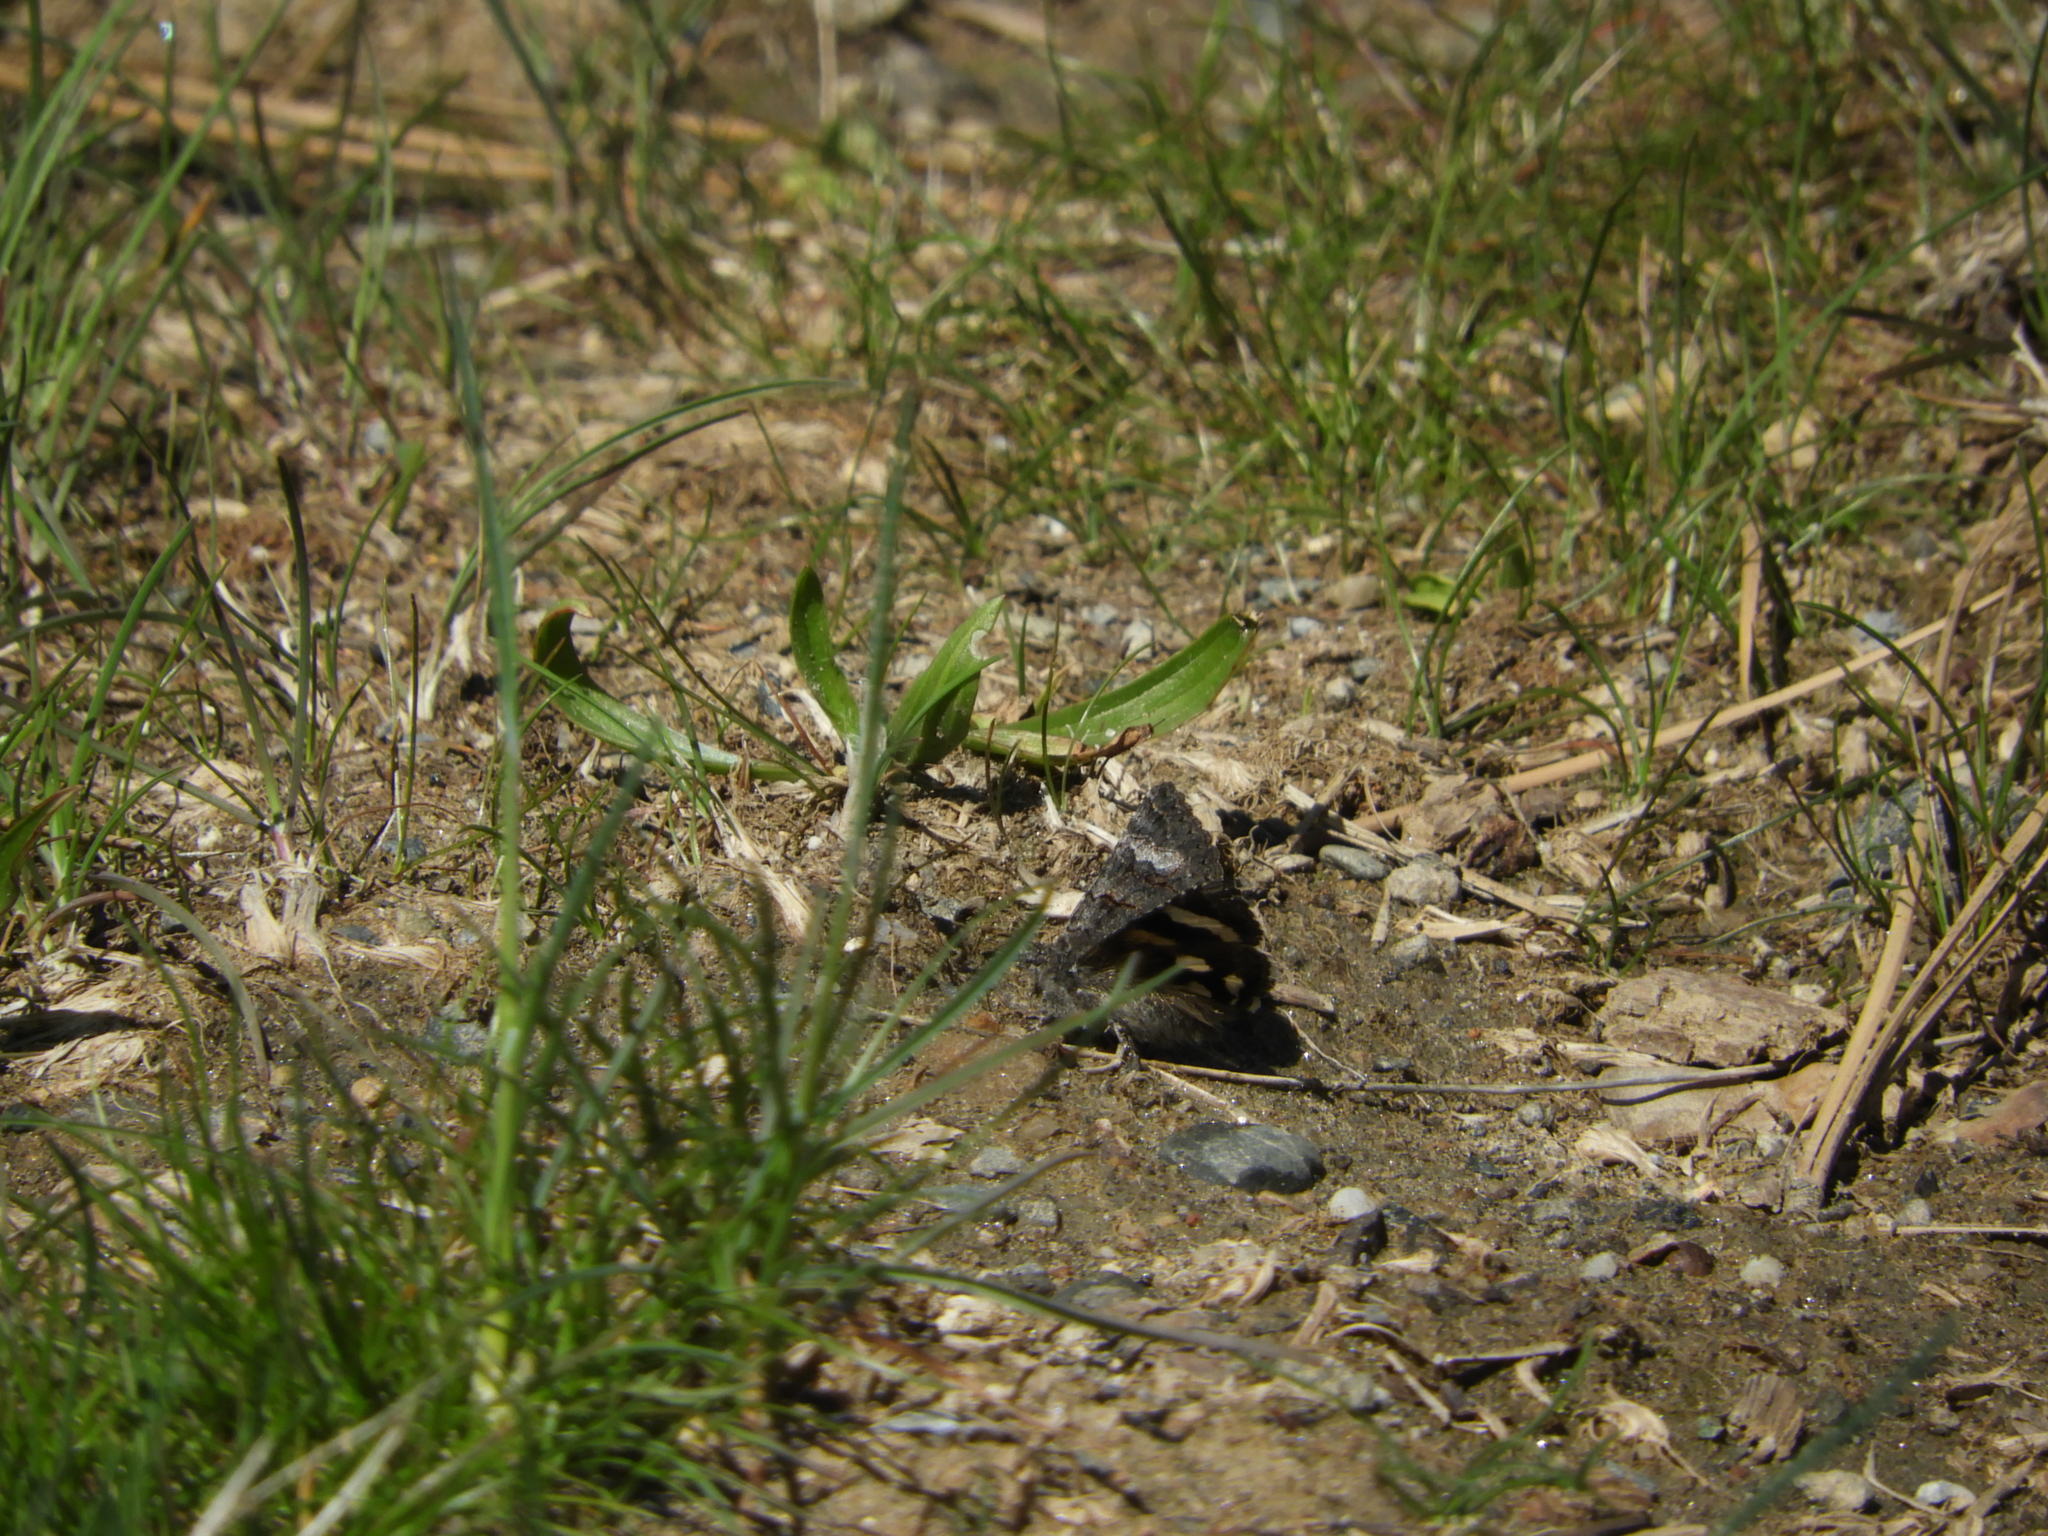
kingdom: Animalia
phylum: Arthropoda
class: Insecta
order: Lepidoptera
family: Erebidae
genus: Litocala
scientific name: Litocala sexsignata
